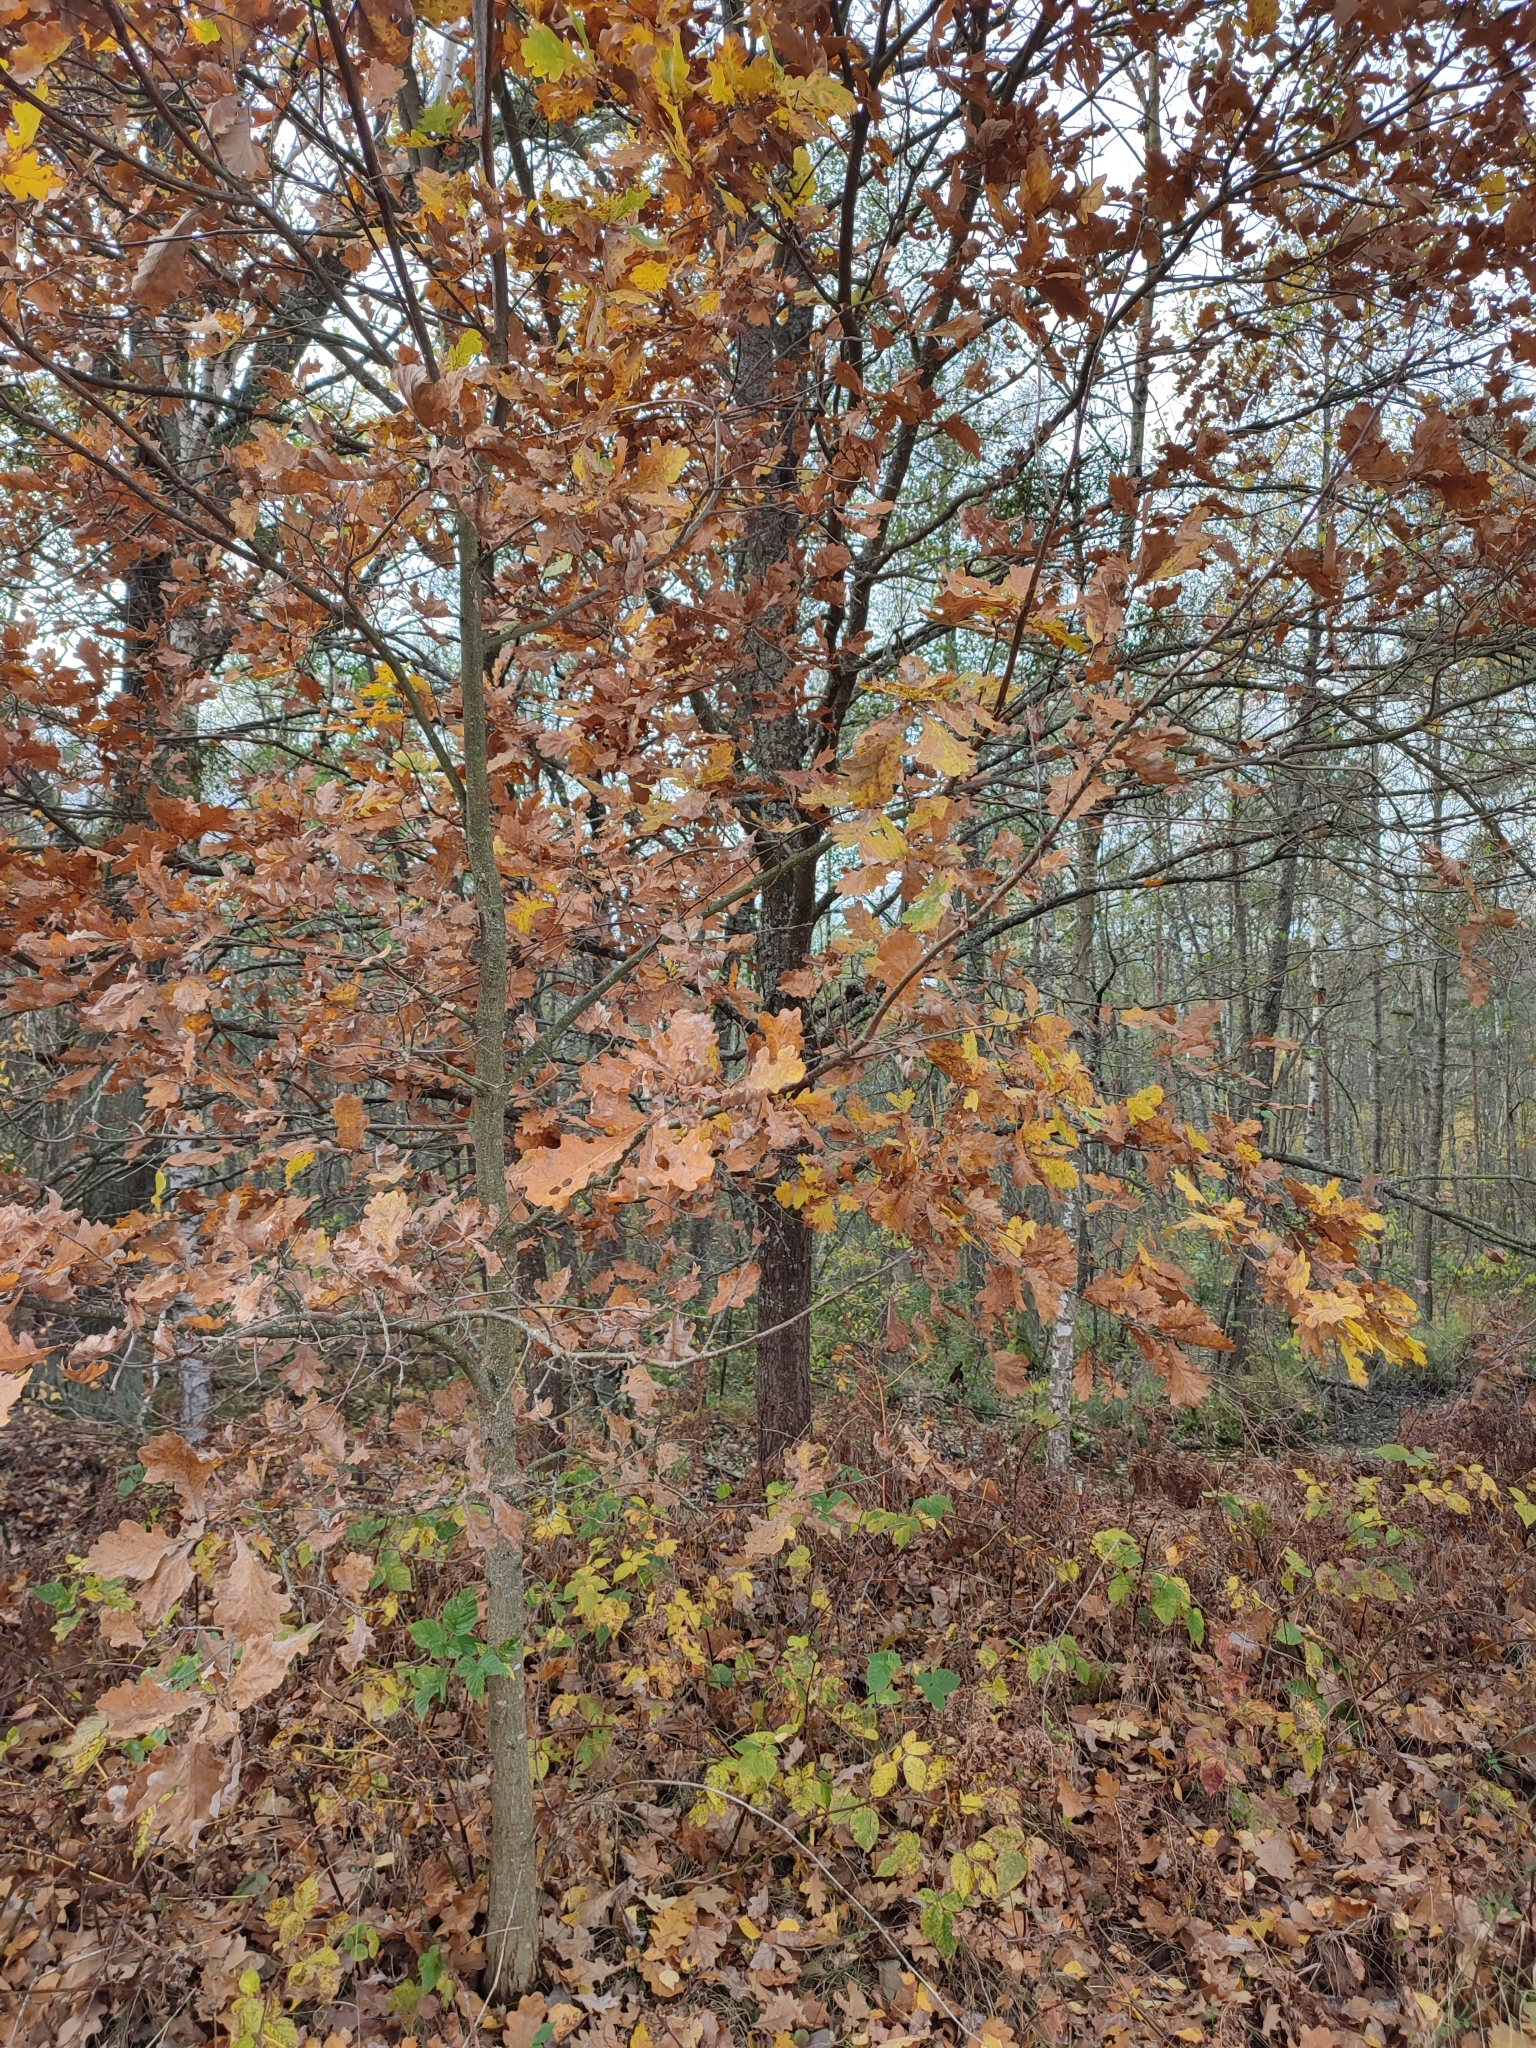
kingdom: Plantae
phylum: Tracheophyta
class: Magnoliopsida
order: Fagales
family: Fagaceae
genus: Quercus
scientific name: Quercus robur
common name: Pedunculate oak
